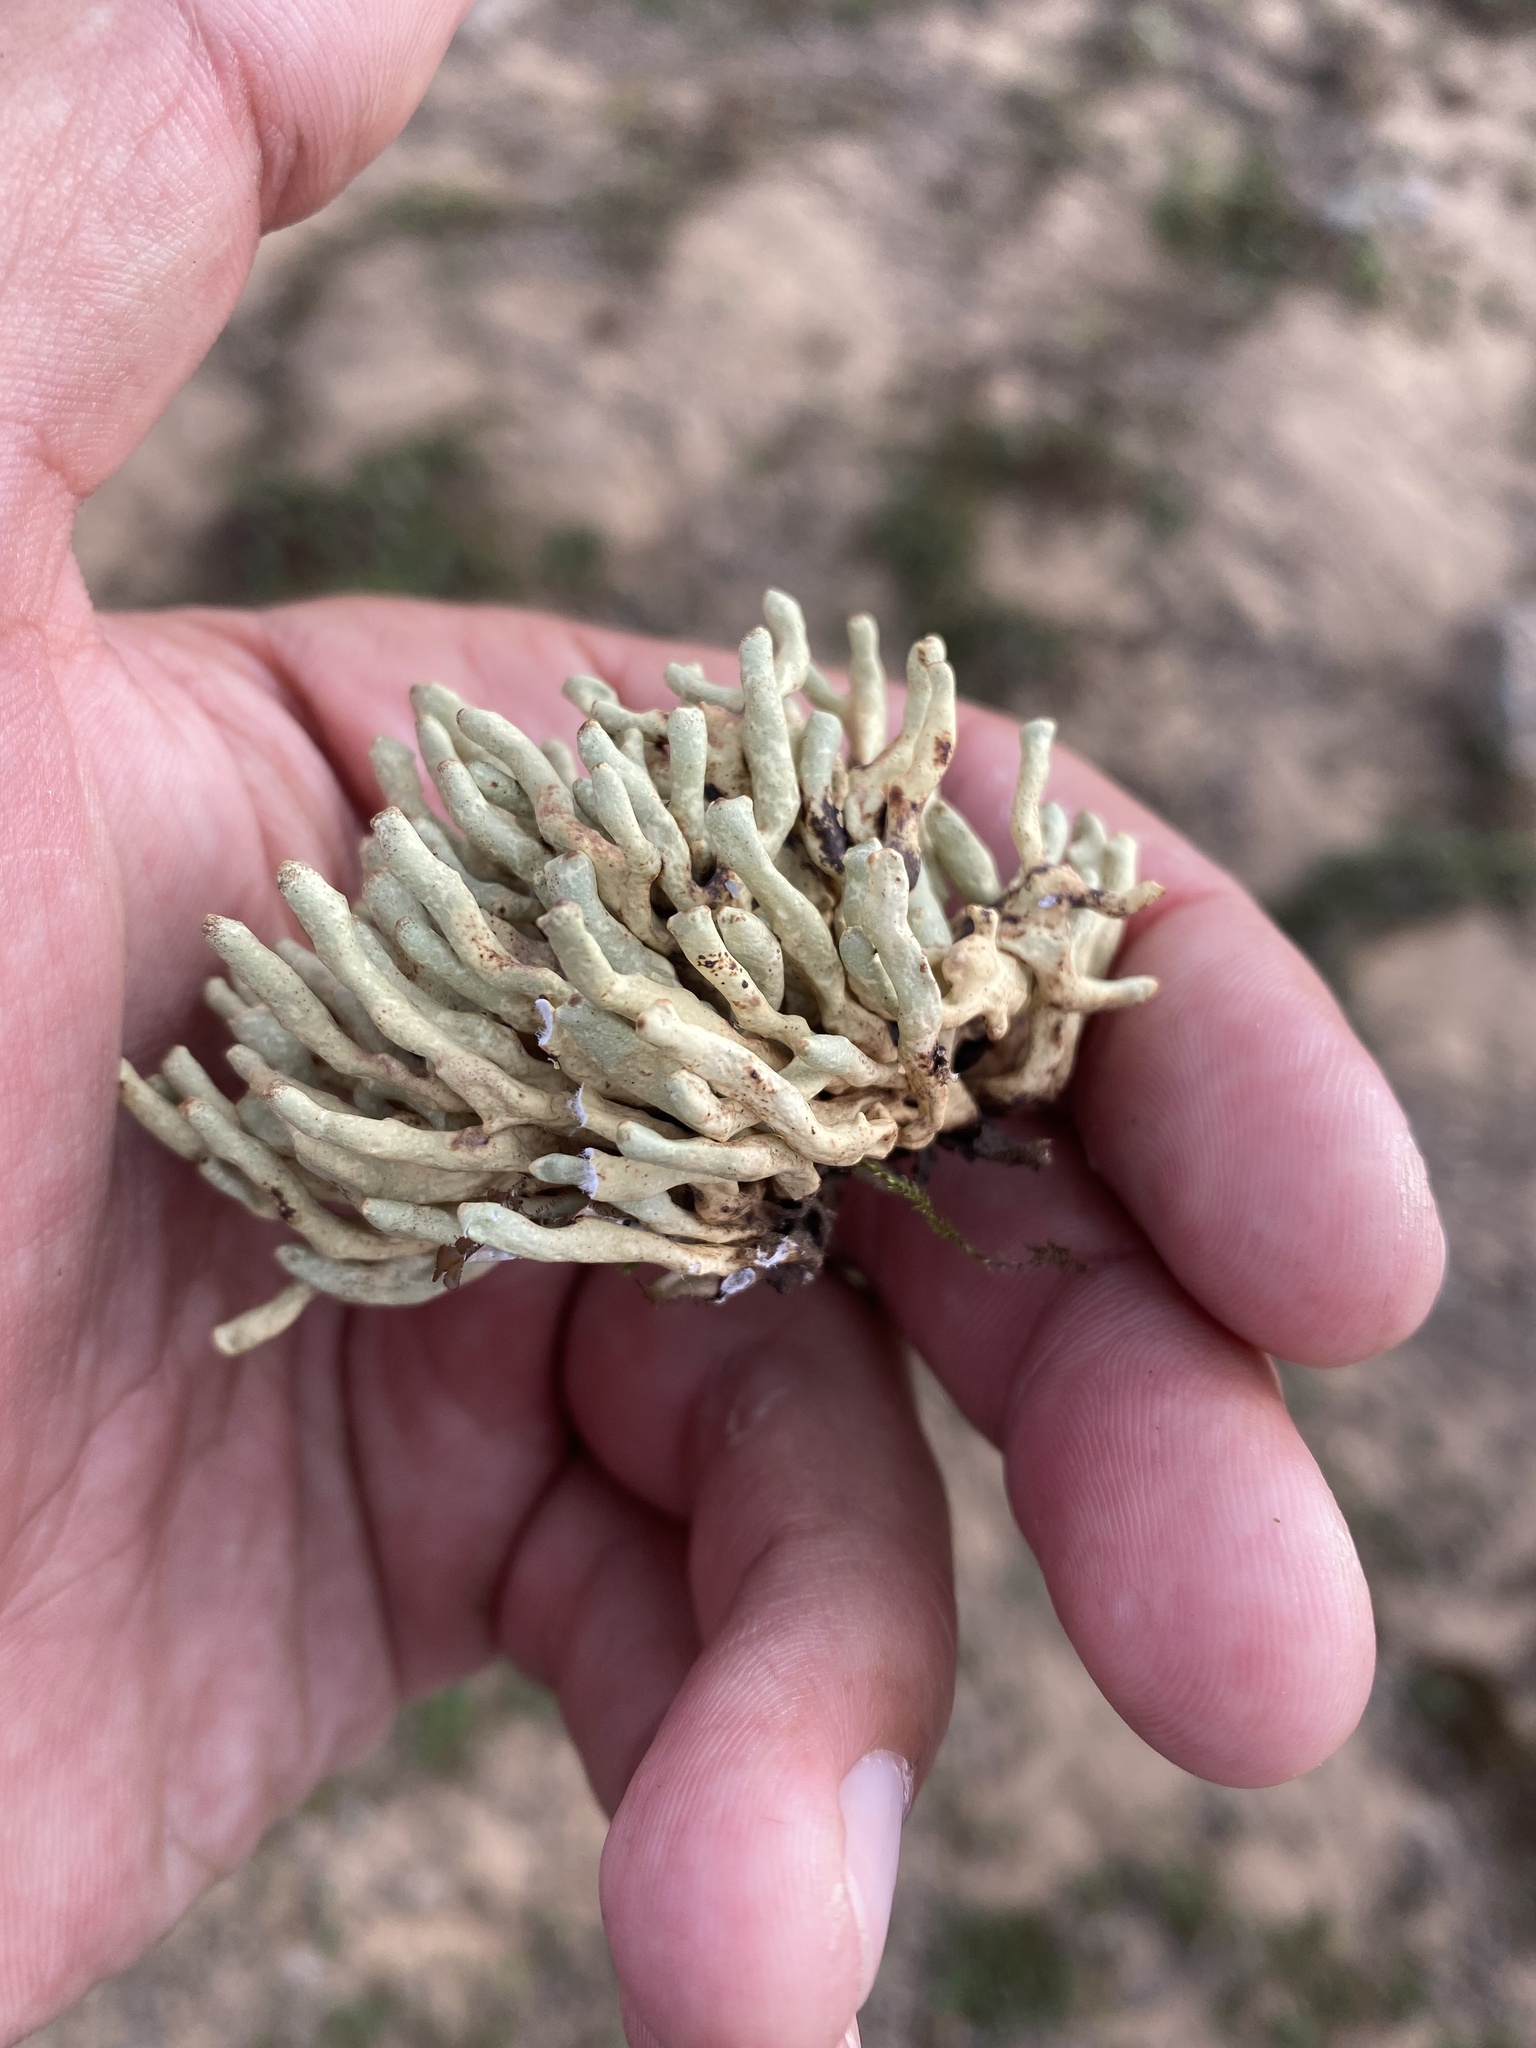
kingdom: Fungi
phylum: Ascomycota
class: Lecanoromycetes
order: Lecanorales
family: Parmeliaceae
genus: Dactylina
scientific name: Dactylina arctica
